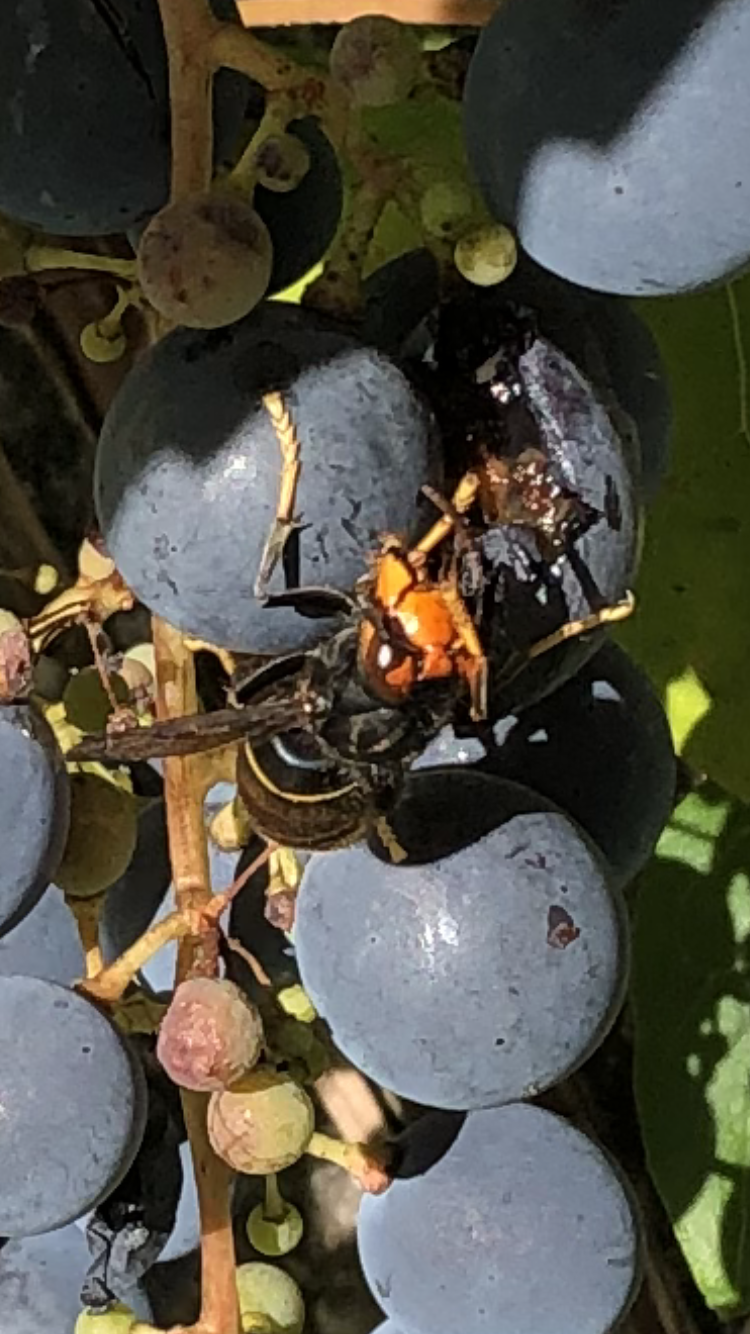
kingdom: Animalia
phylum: Arthropoda
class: Insecta
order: Hymenoptera
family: Vespidae
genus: Vespa
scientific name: Vespa velutina
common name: Asian hornet
